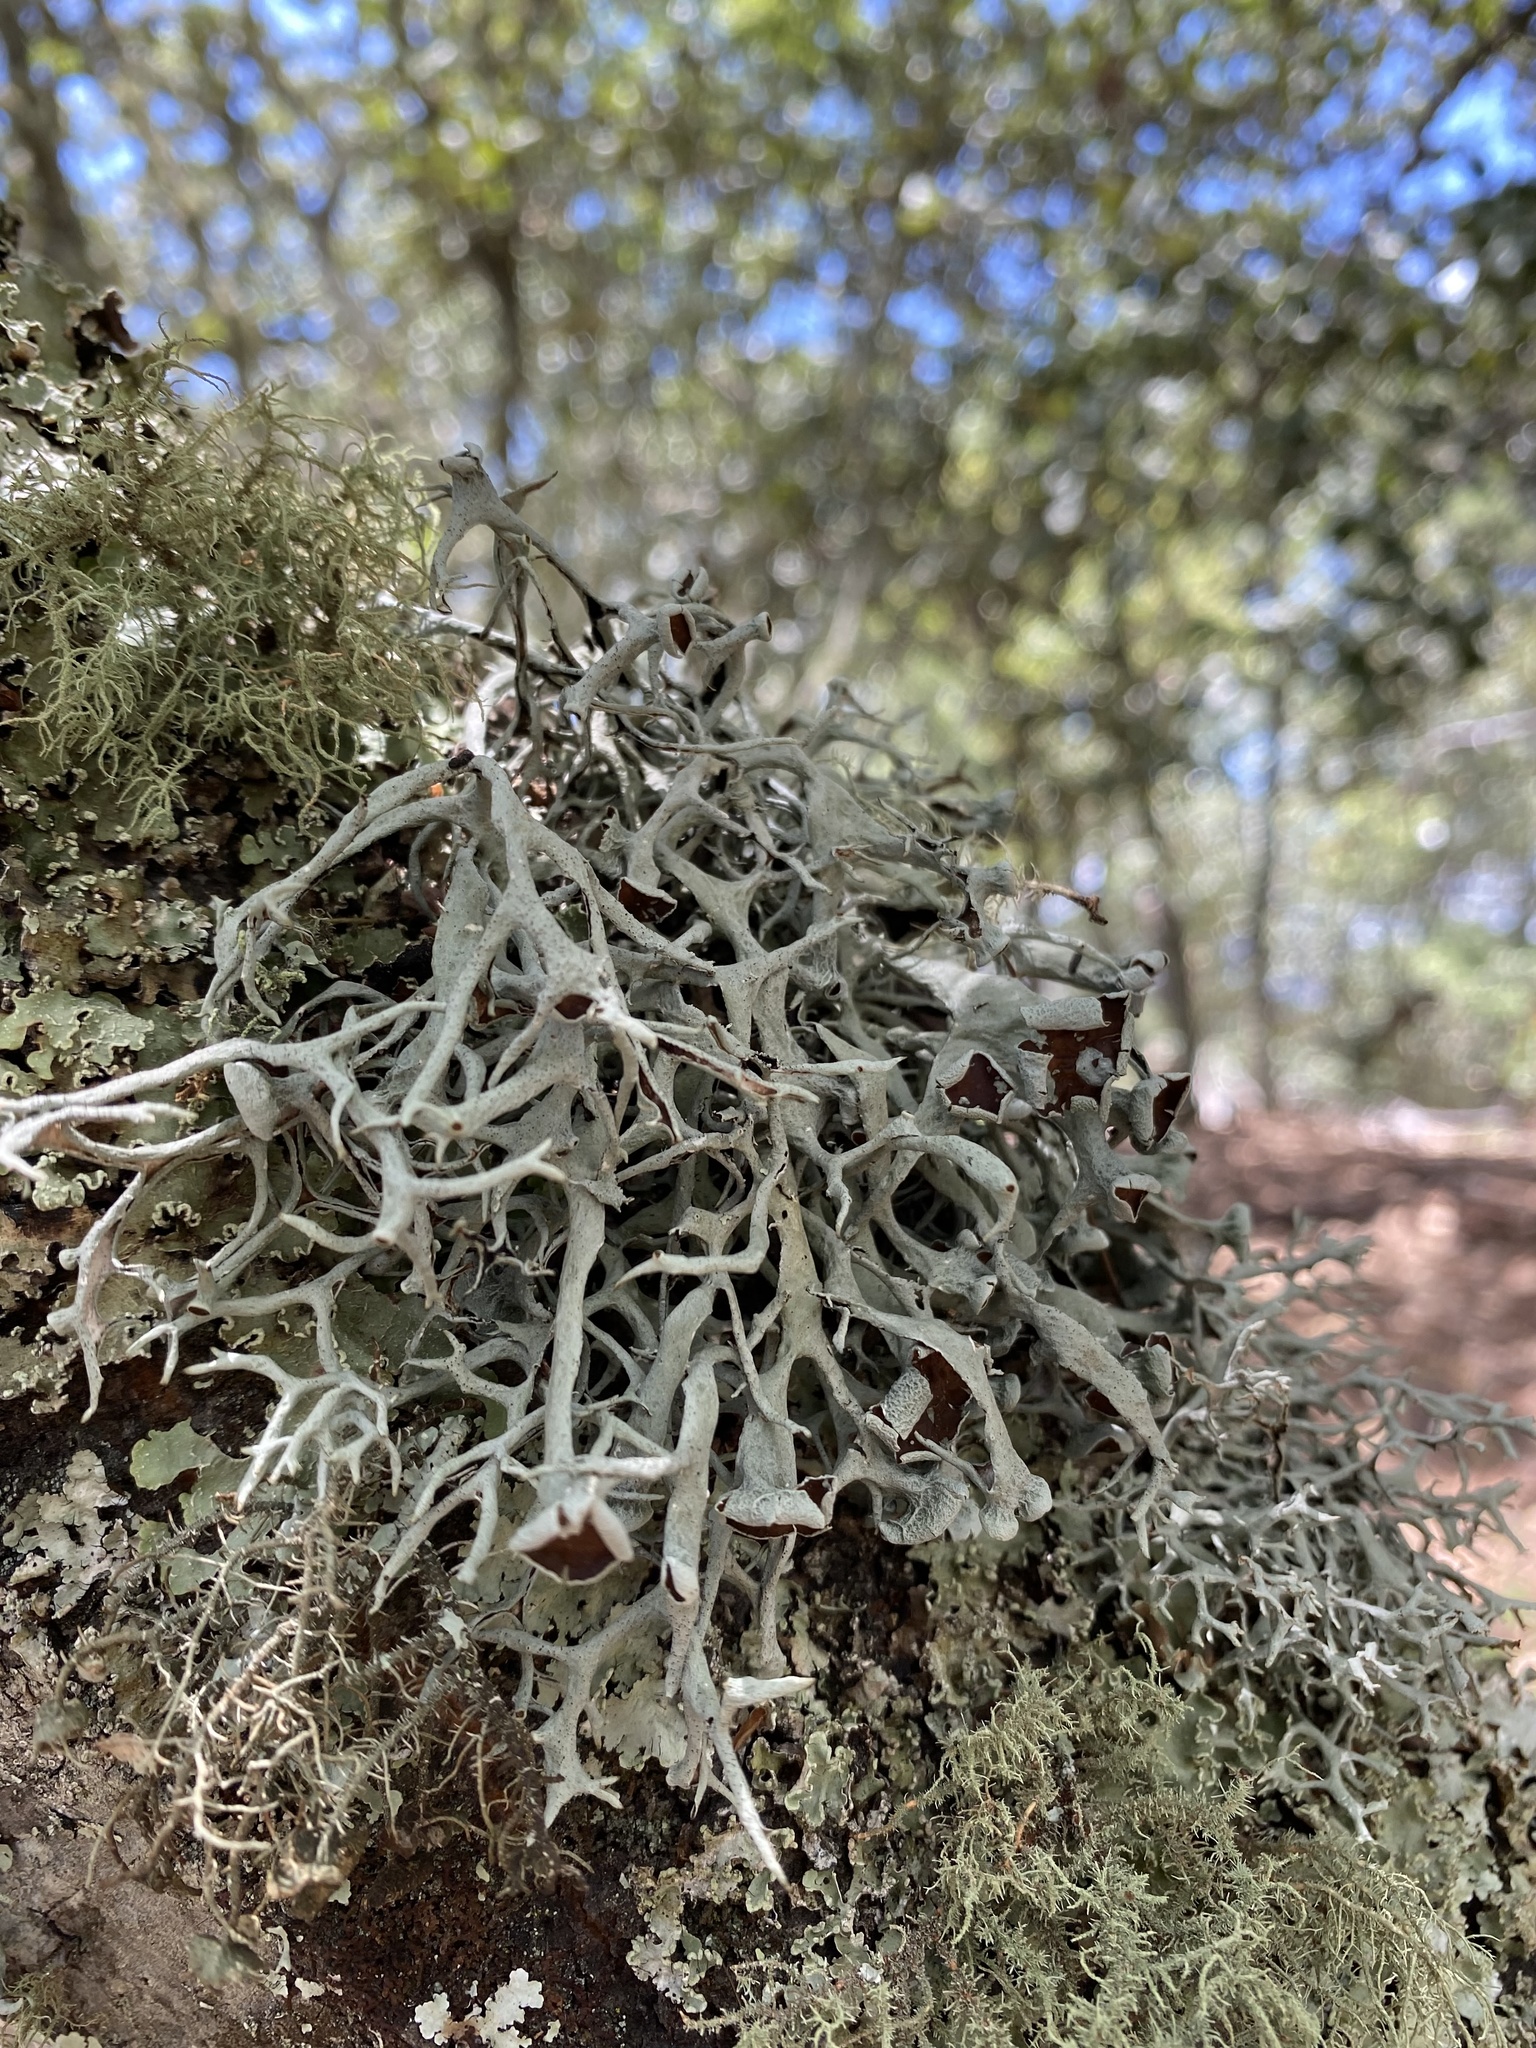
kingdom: Fungi
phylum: Ascomycota
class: Lecanoromycetes
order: Lecanorales
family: Parmeliaceae
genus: Pseudevernia
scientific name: Pseudevernia
